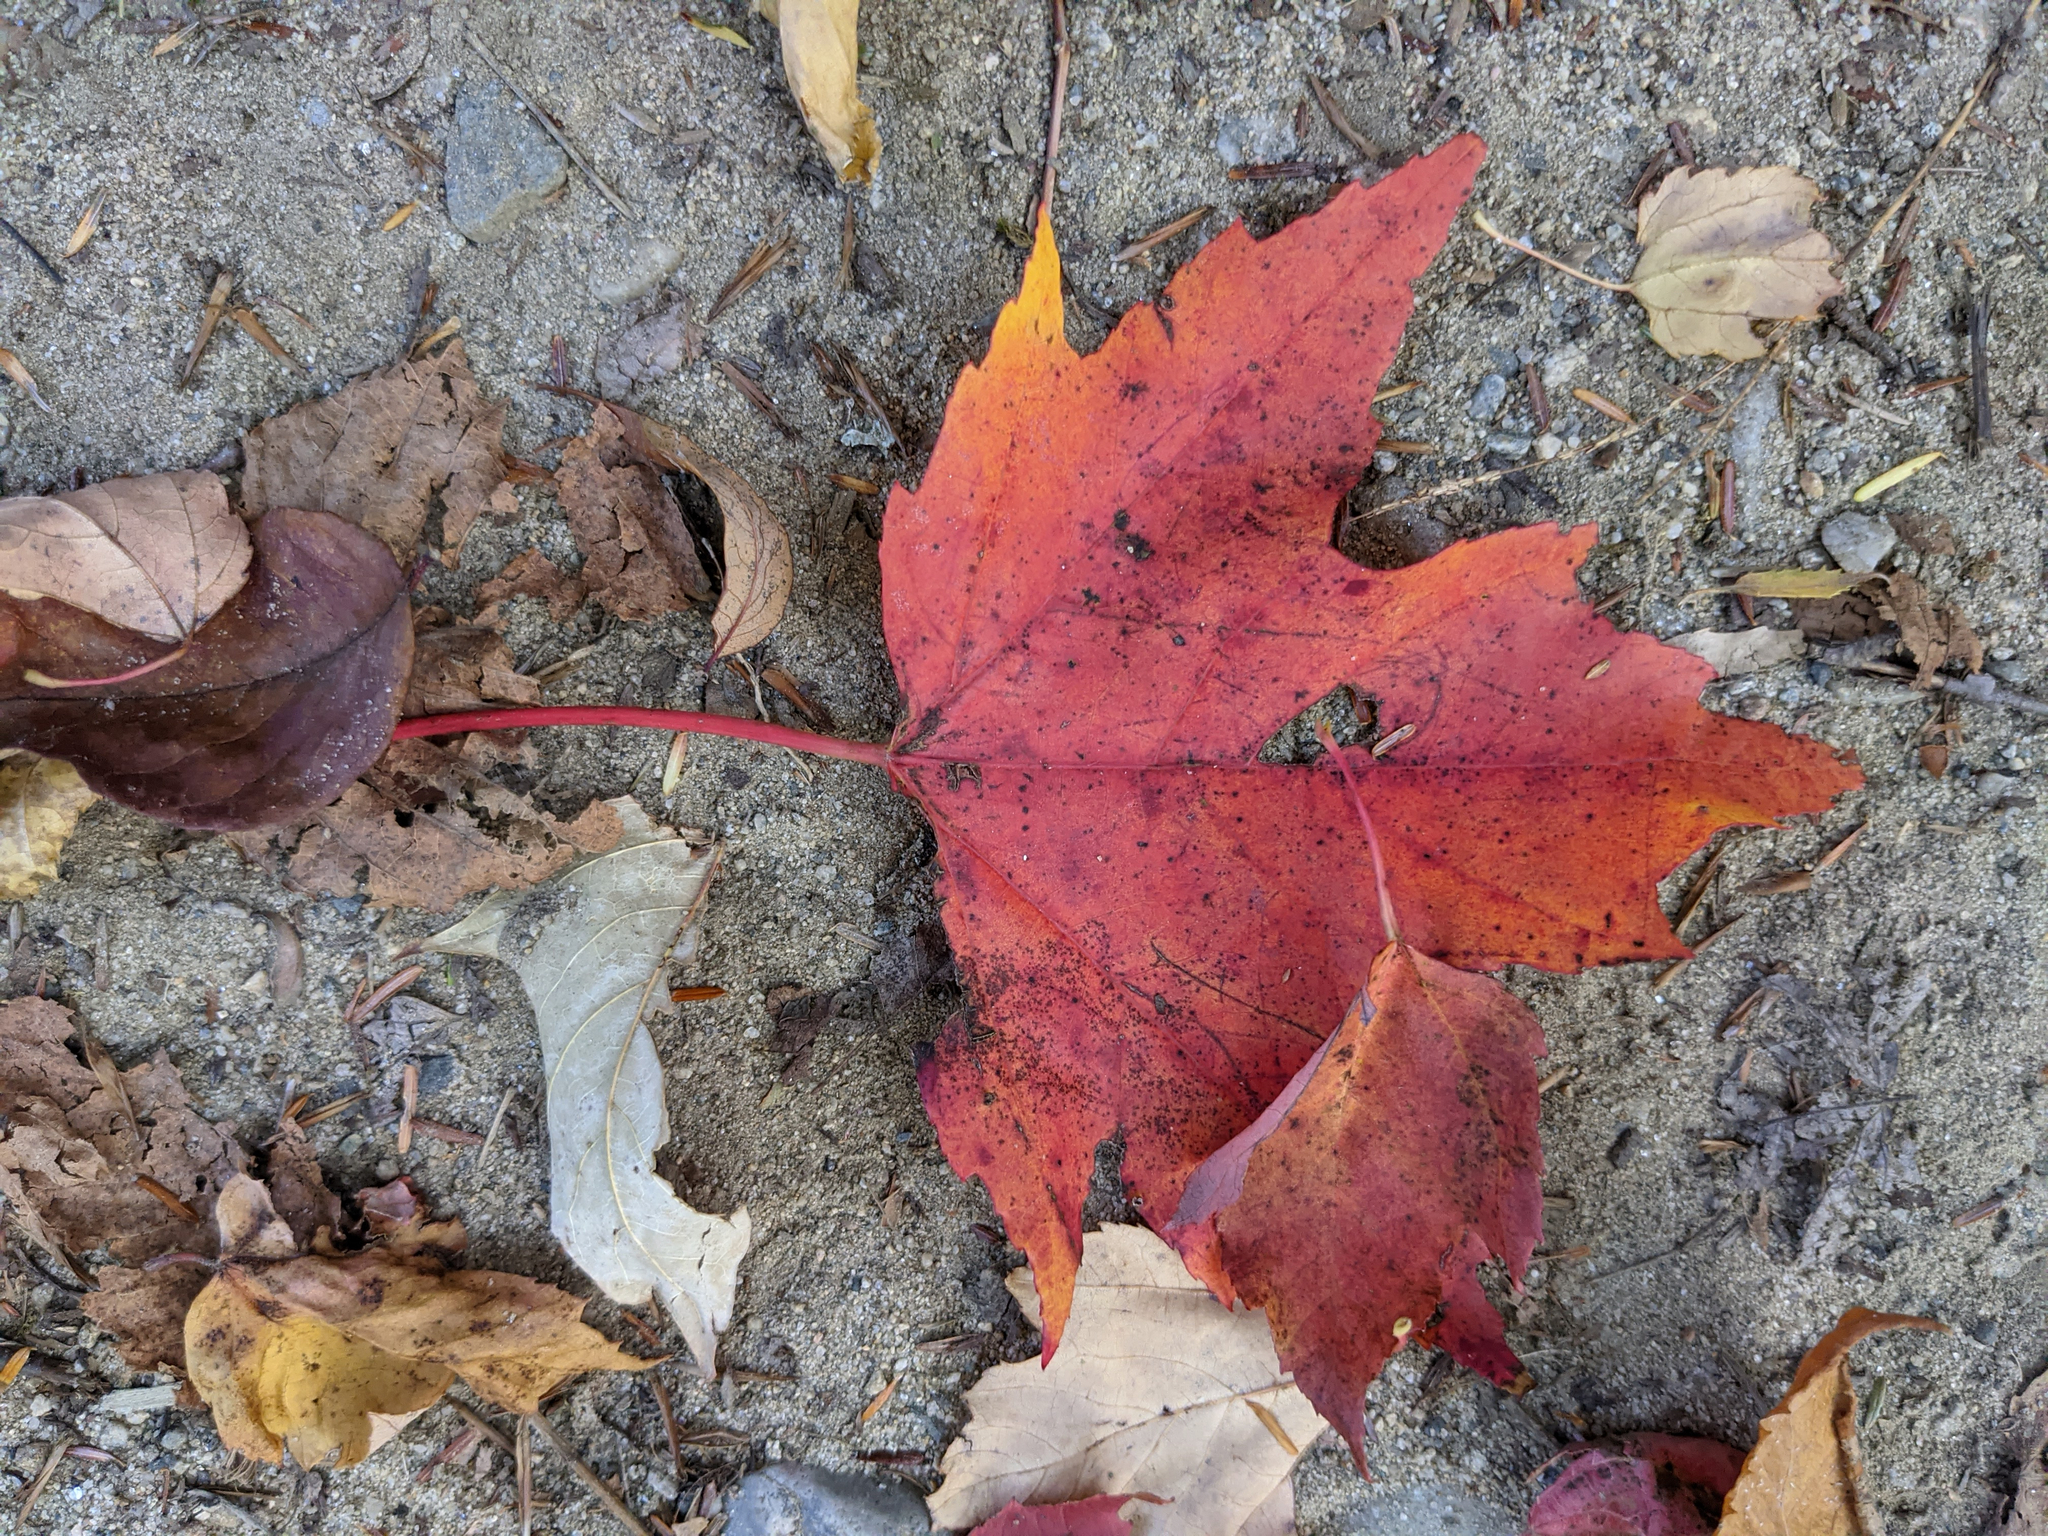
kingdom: Plantae
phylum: Tracheophyta
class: Magnoliopsida
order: Sapindales
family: Sapindaceae
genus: Acer
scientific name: Acer rubrum
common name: Red maple
